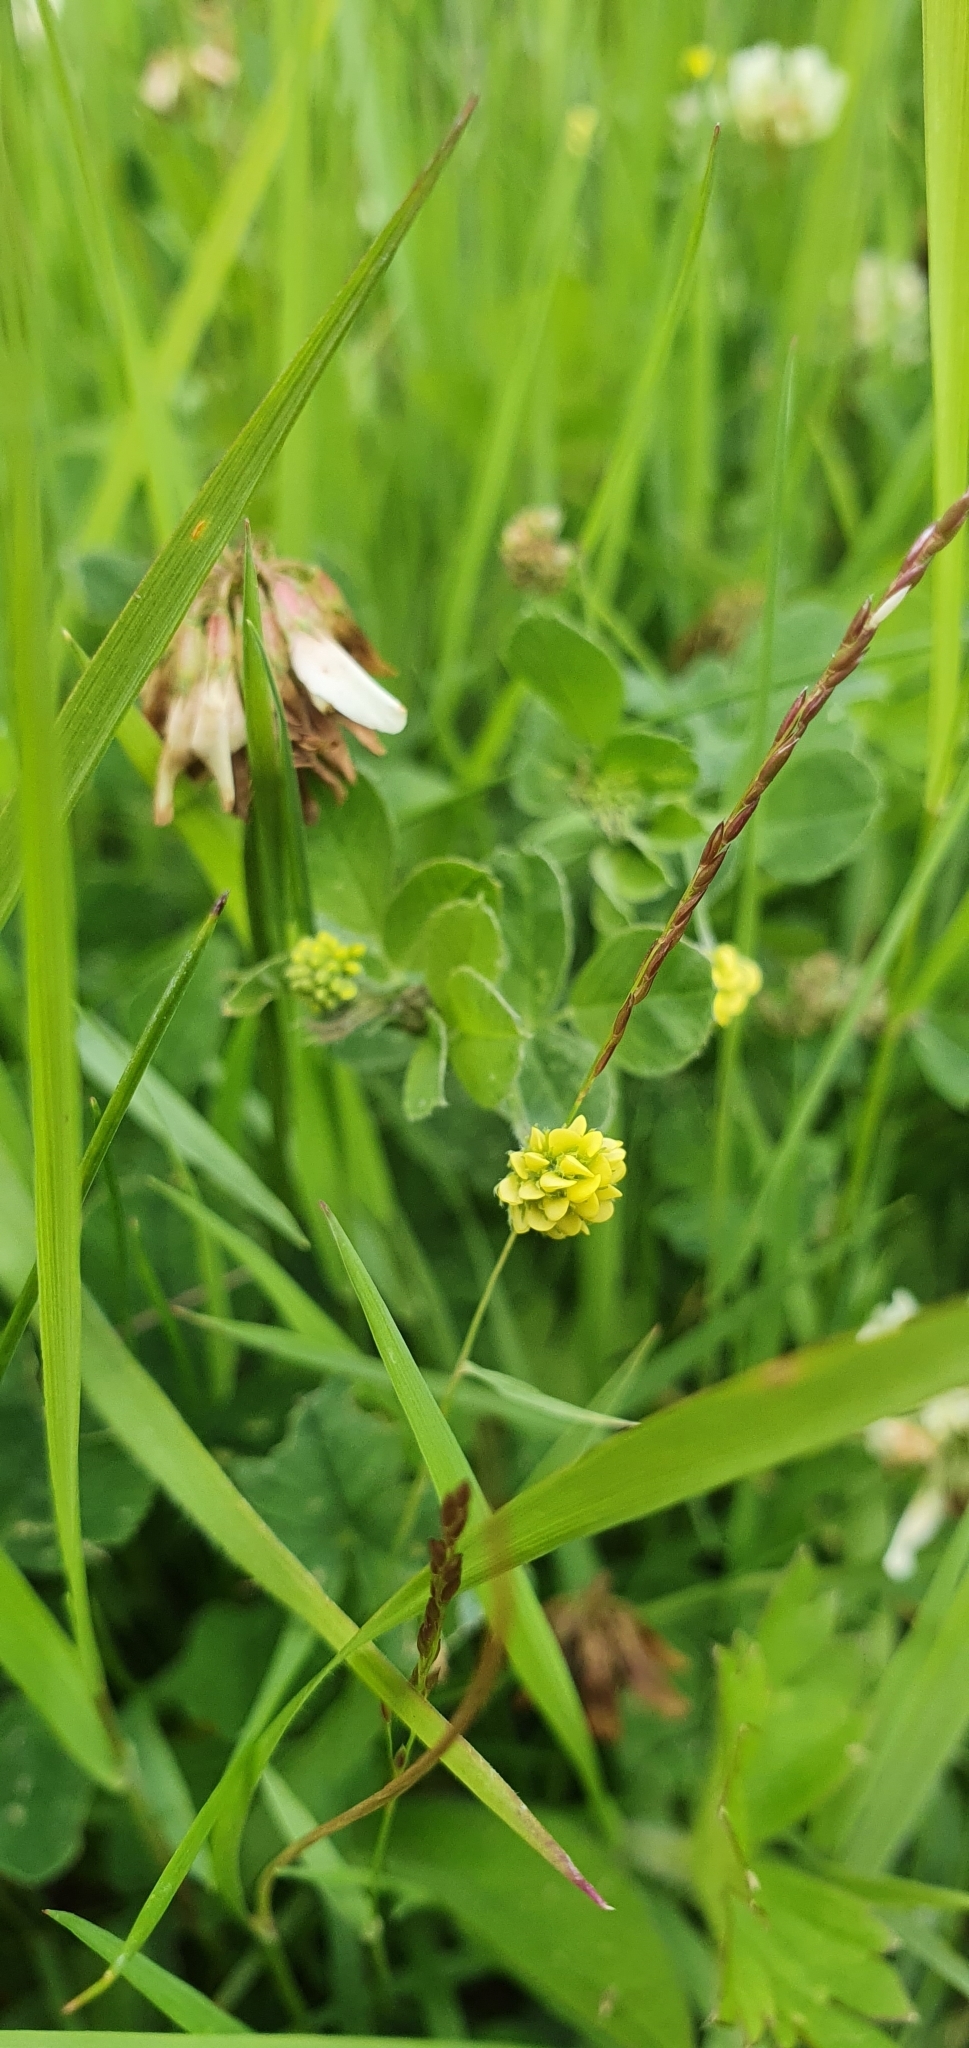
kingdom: Plantae
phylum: Tracheophyta
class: Magnoliopsida
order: Fabales
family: Fabaceae
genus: Medicago
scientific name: Medicago lupulina
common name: Black medick
